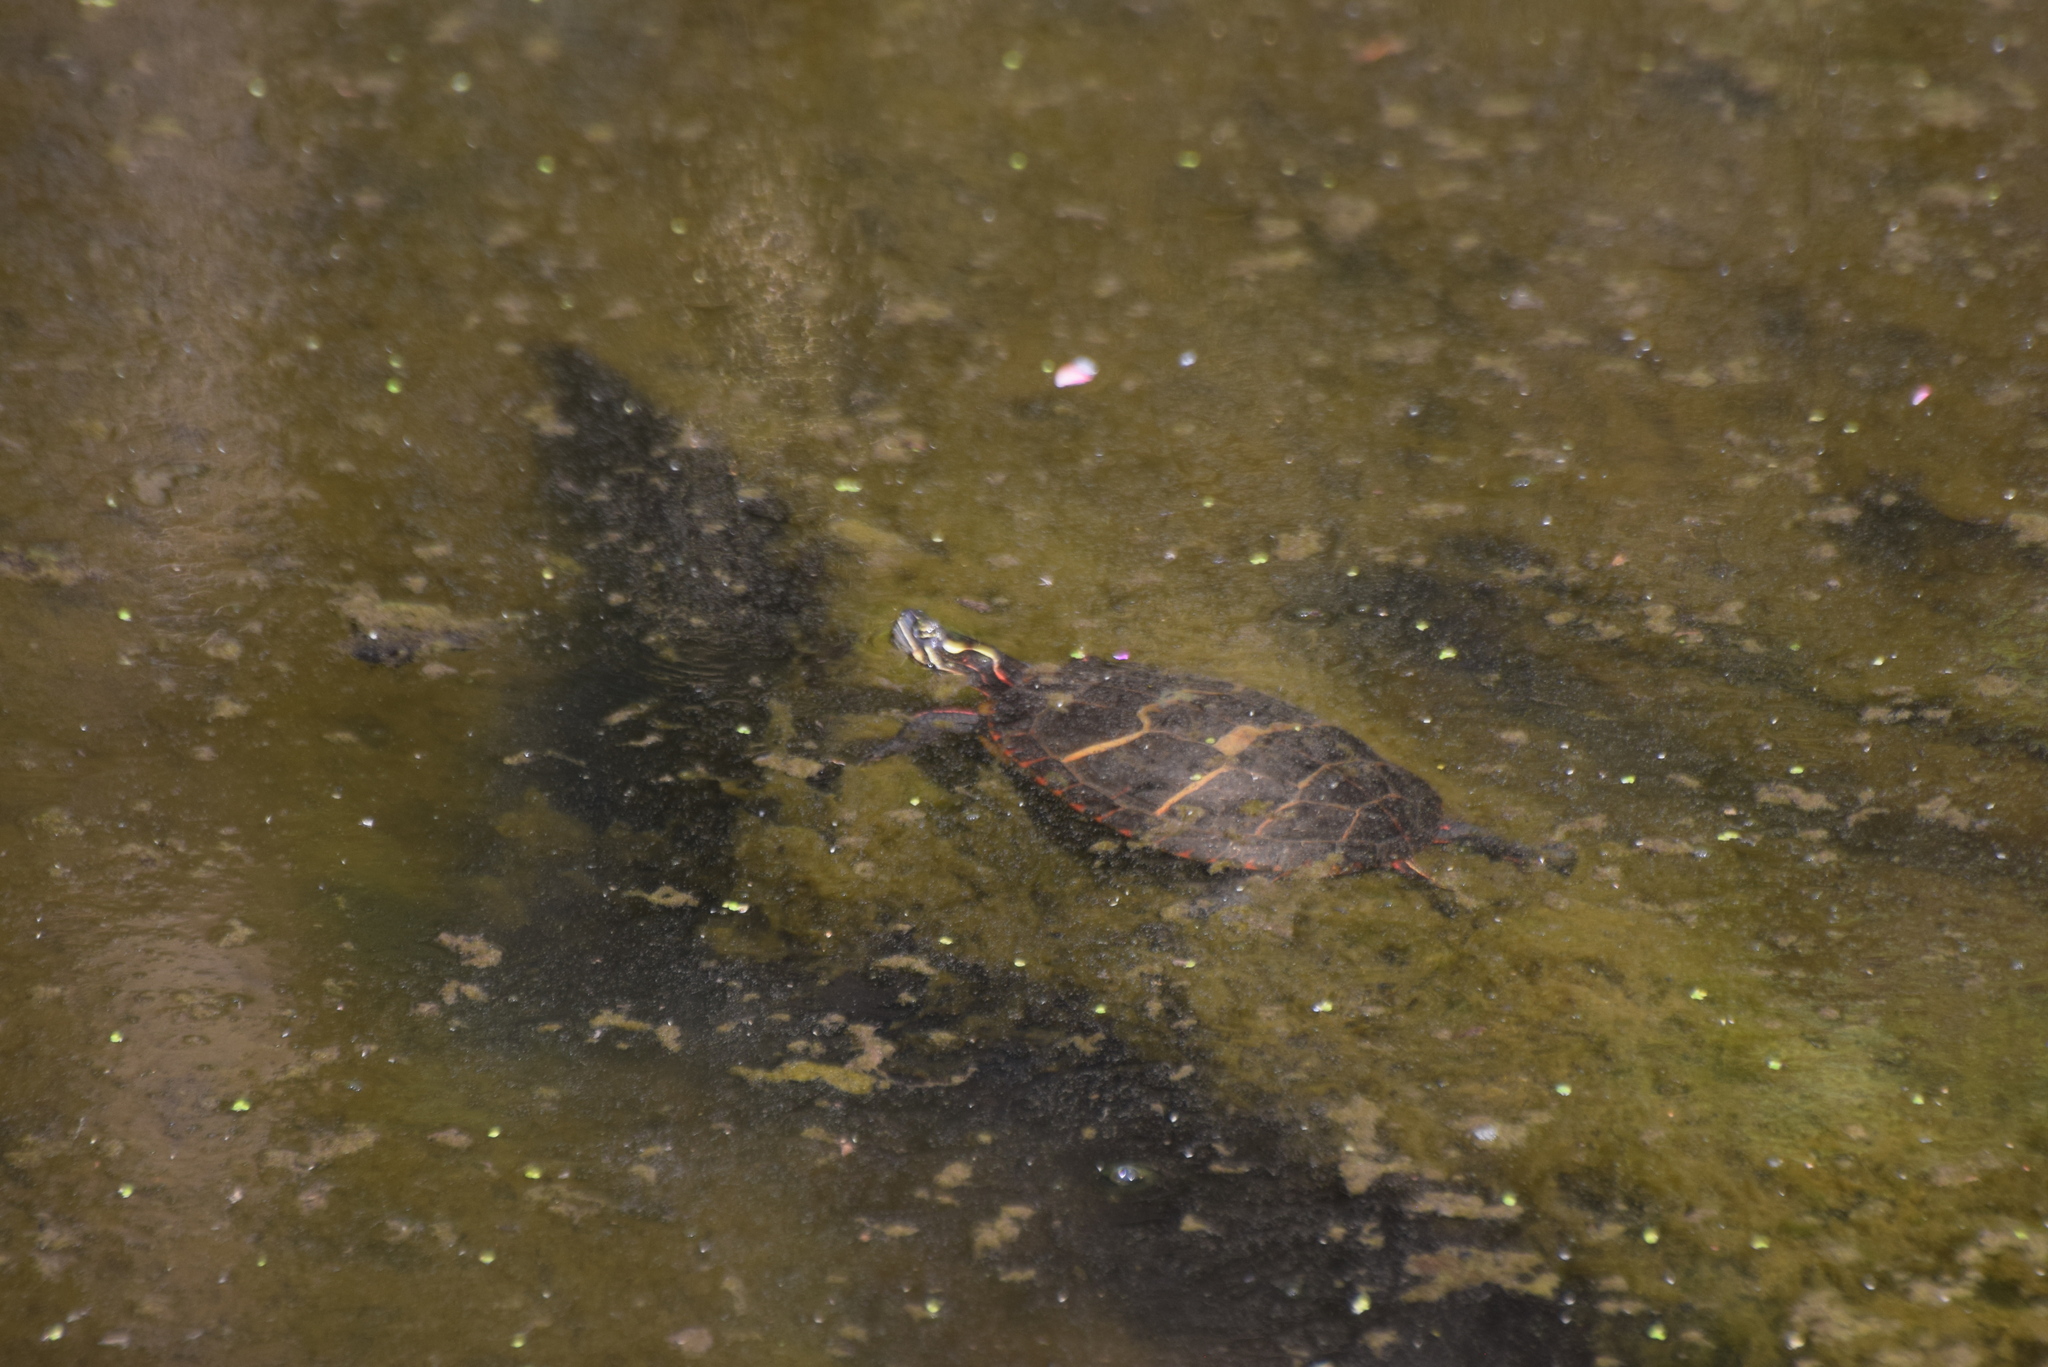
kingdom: Animalia
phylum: Chordata
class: Testudines
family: Emydidae
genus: Chrysemys
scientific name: Chrysemys picta
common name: Painted turtle
